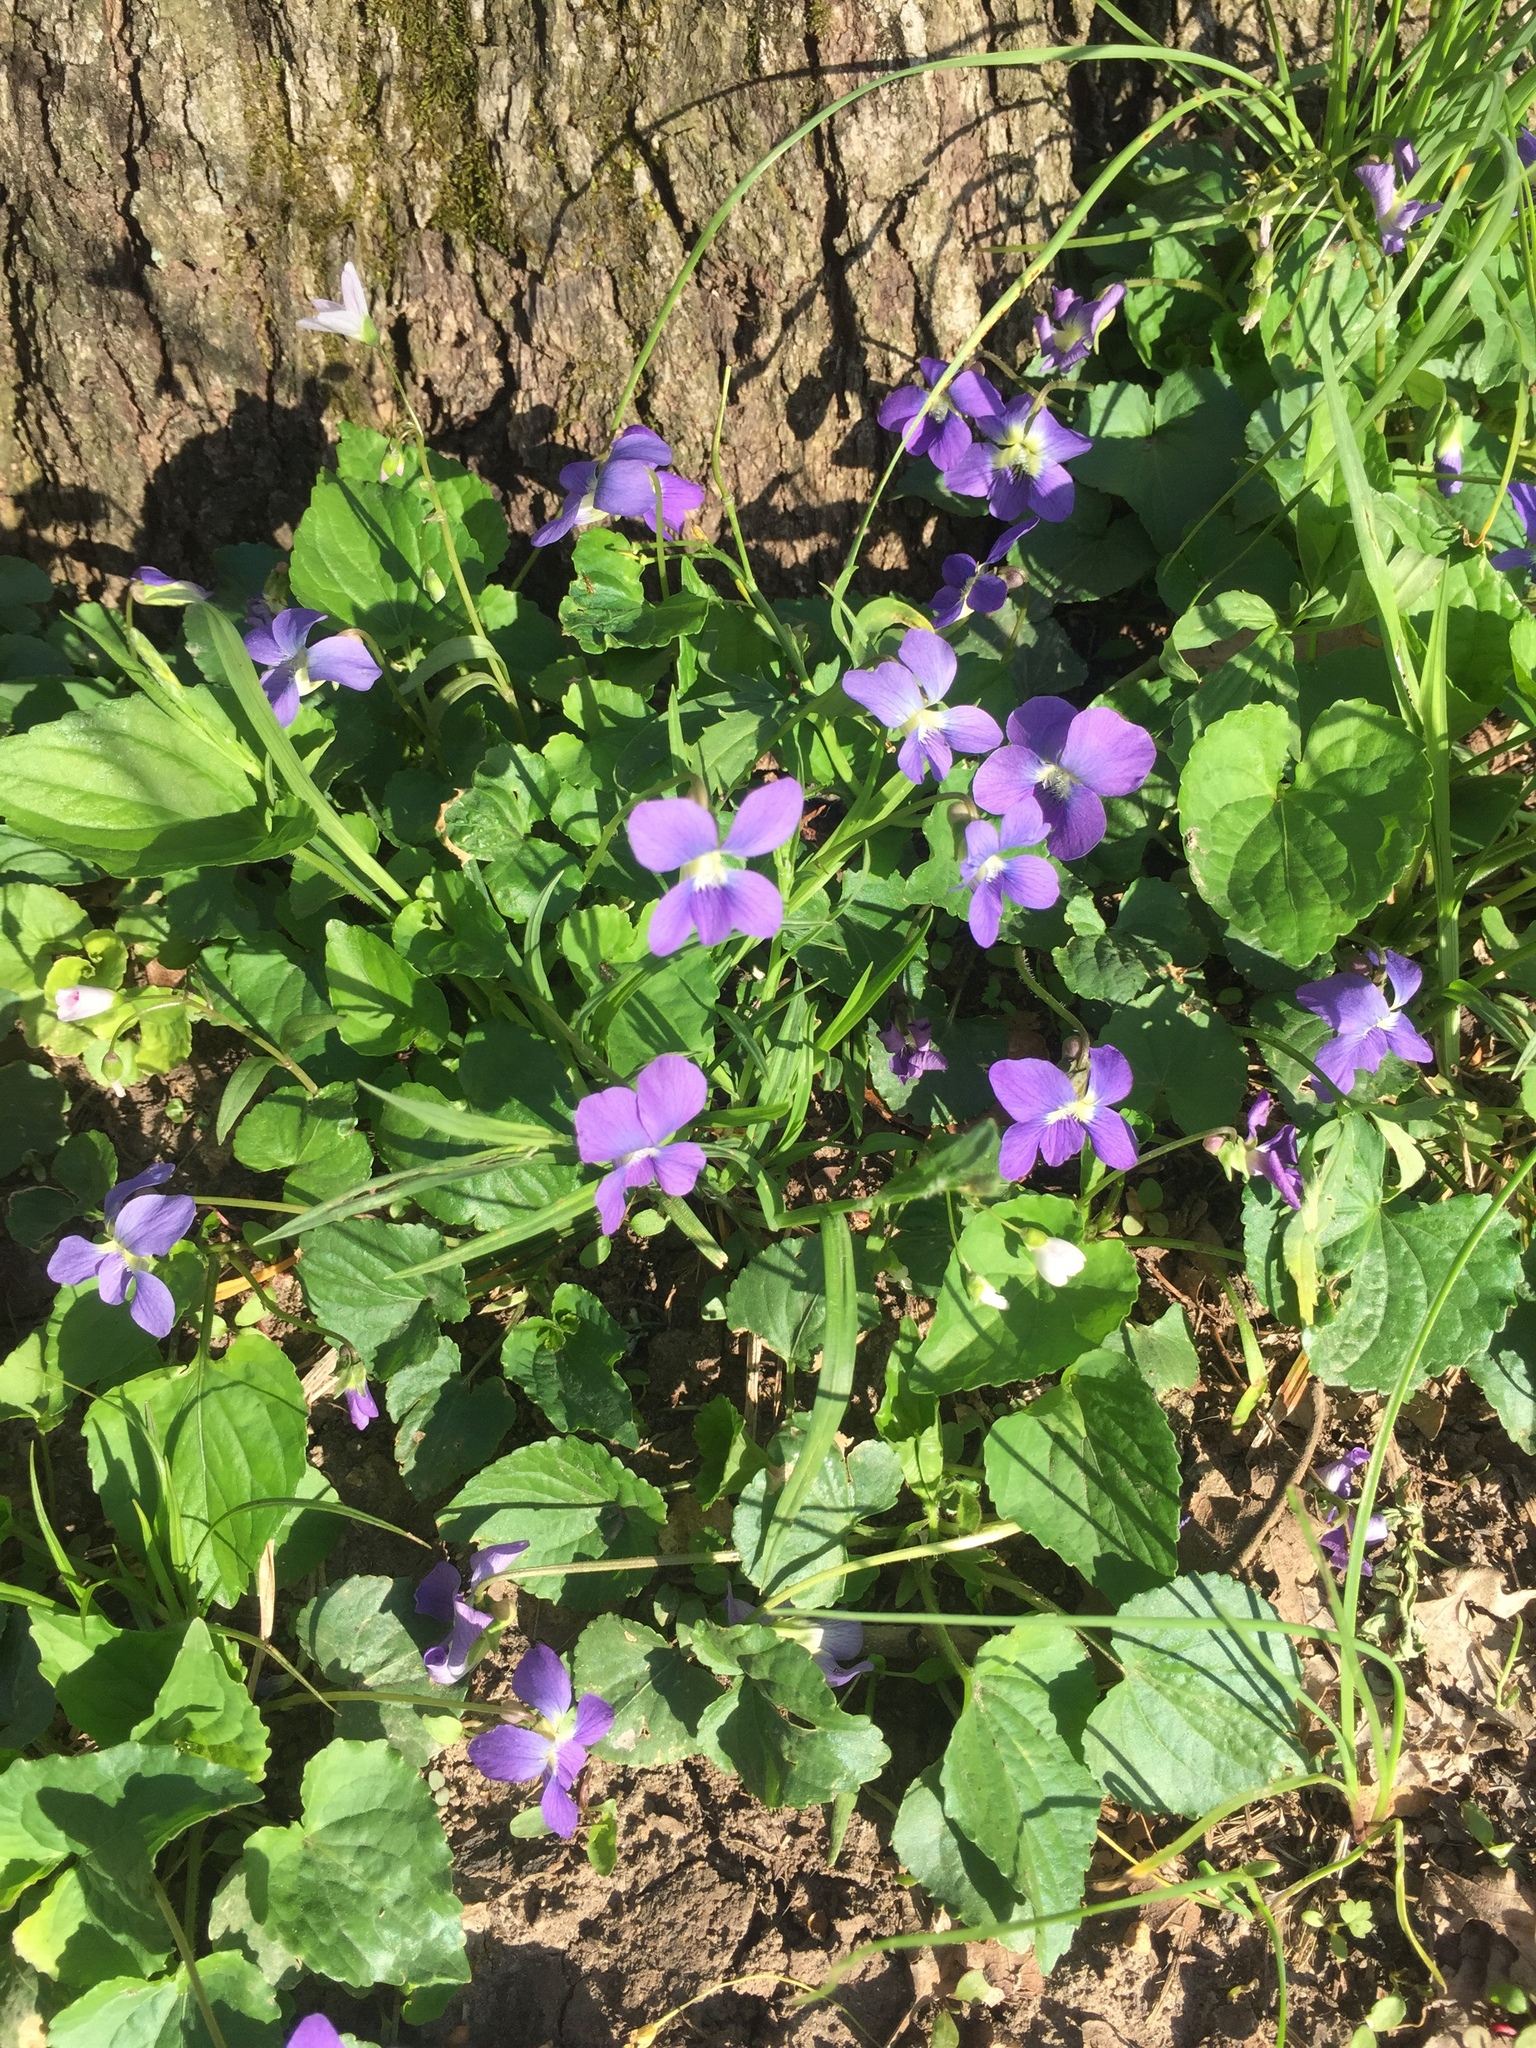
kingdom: Plantae
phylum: Tracheophyta
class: Magnoliopsida
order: Malpighiales
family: Violaceae
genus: Viola
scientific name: Viola sororia
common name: Dooryard violet
